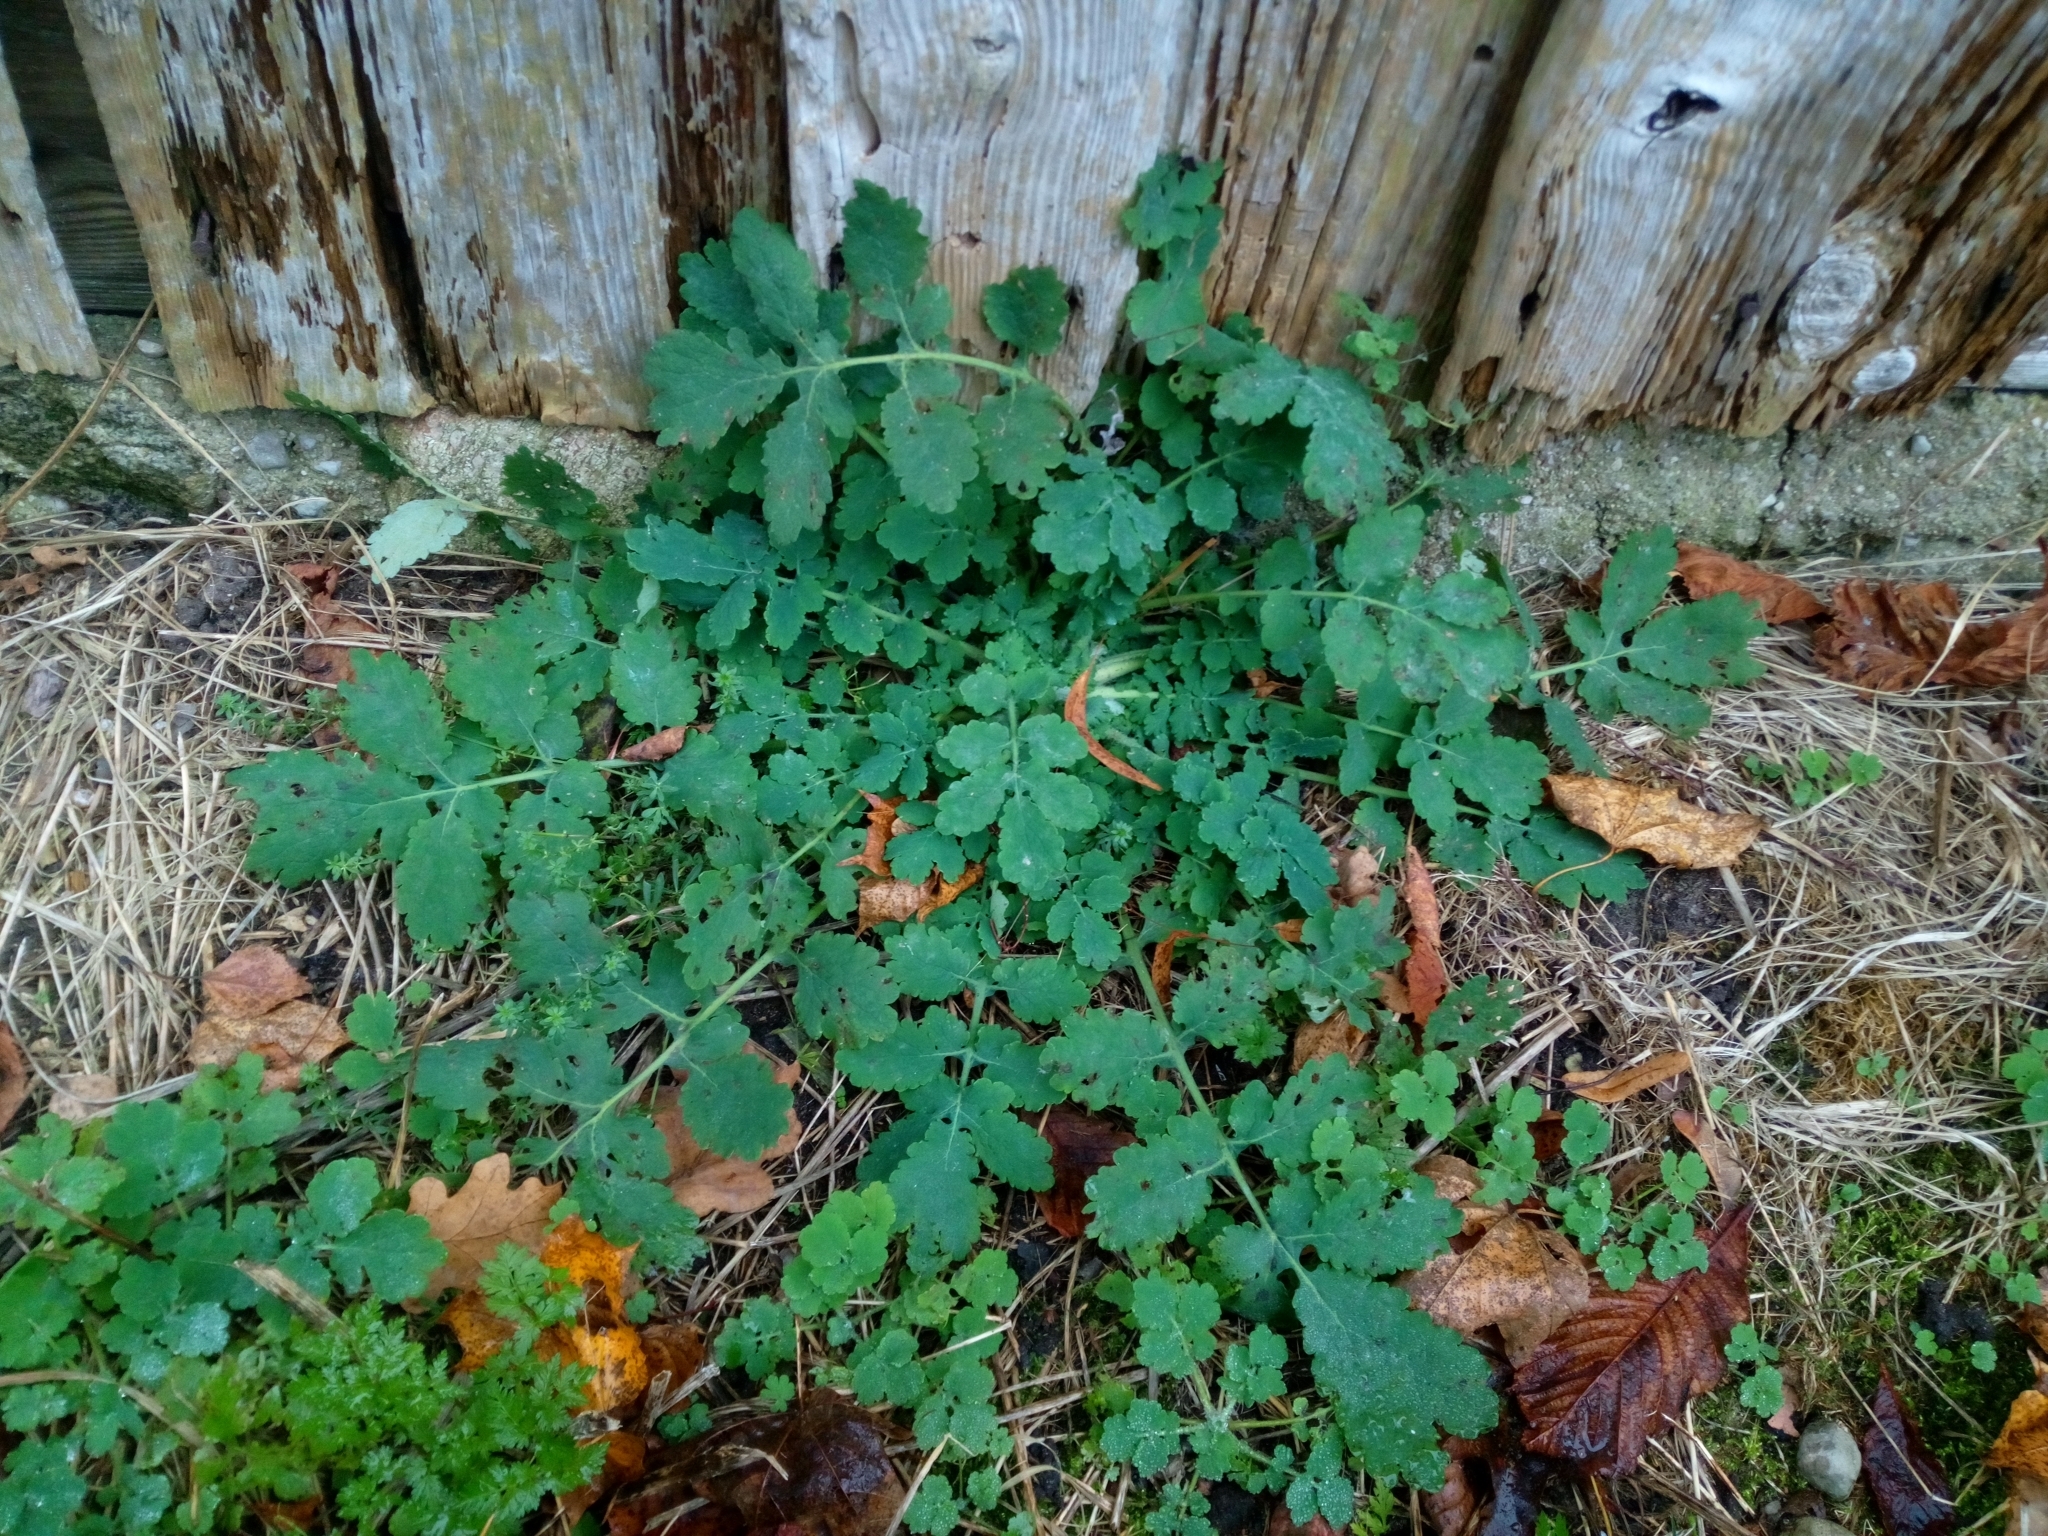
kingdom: Plantae
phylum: Tracheophyta
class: Magnoliopsida
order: Ranunculales
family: Papaveraceae
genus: Chelidonium
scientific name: Chelidonium majus
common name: Greater celandine
